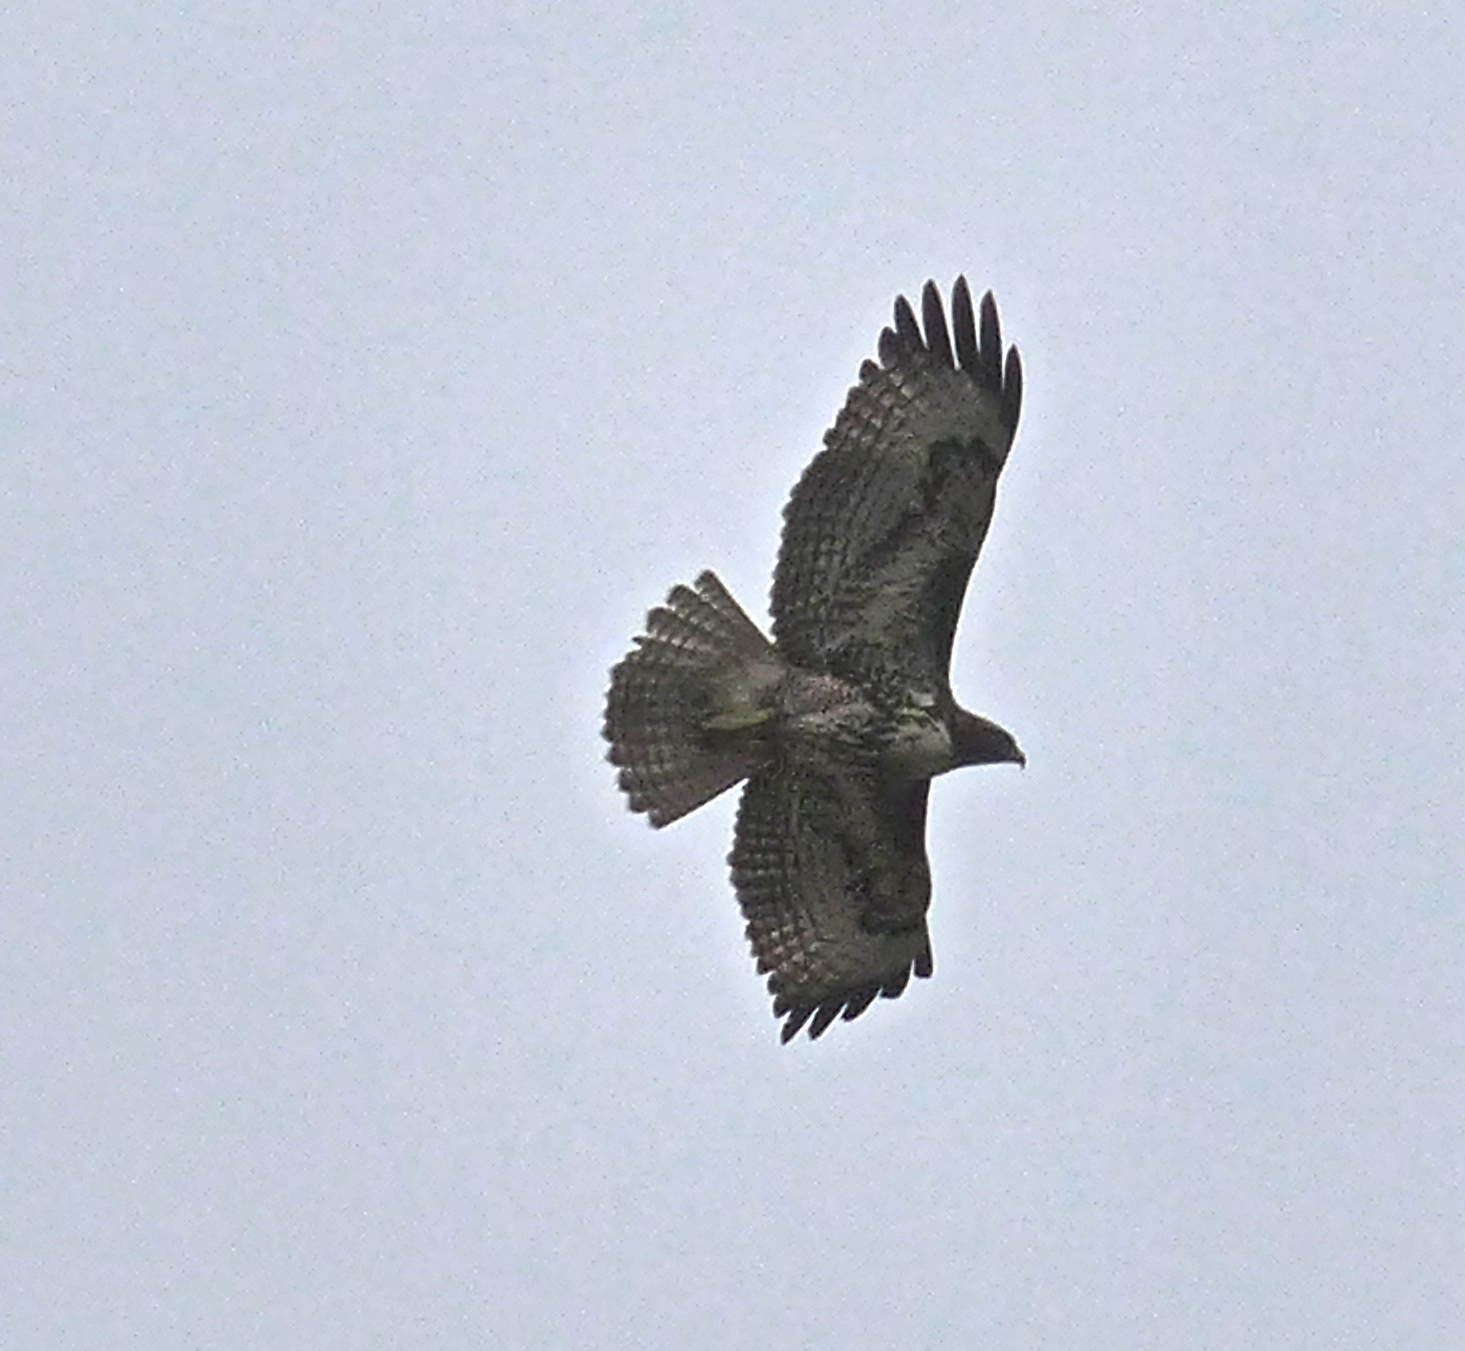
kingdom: Animalia
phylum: Chordata
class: Aves
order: Accipitriformes
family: Accipitridae
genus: Buteo
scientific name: Buteo jamaicensis
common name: Red-tailed hawk
